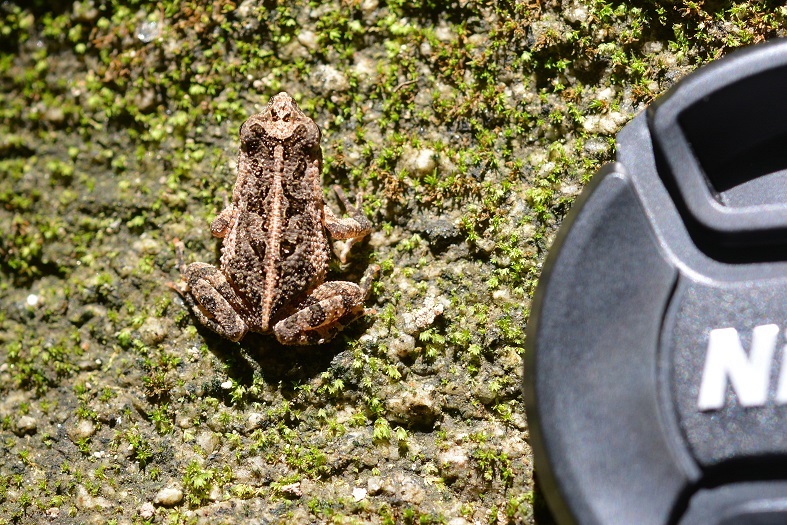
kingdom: Animalia
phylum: Chordata
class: Amphibia
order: Anura
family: Bufonidae
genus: Incilius
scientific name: Incilius canaliferus
